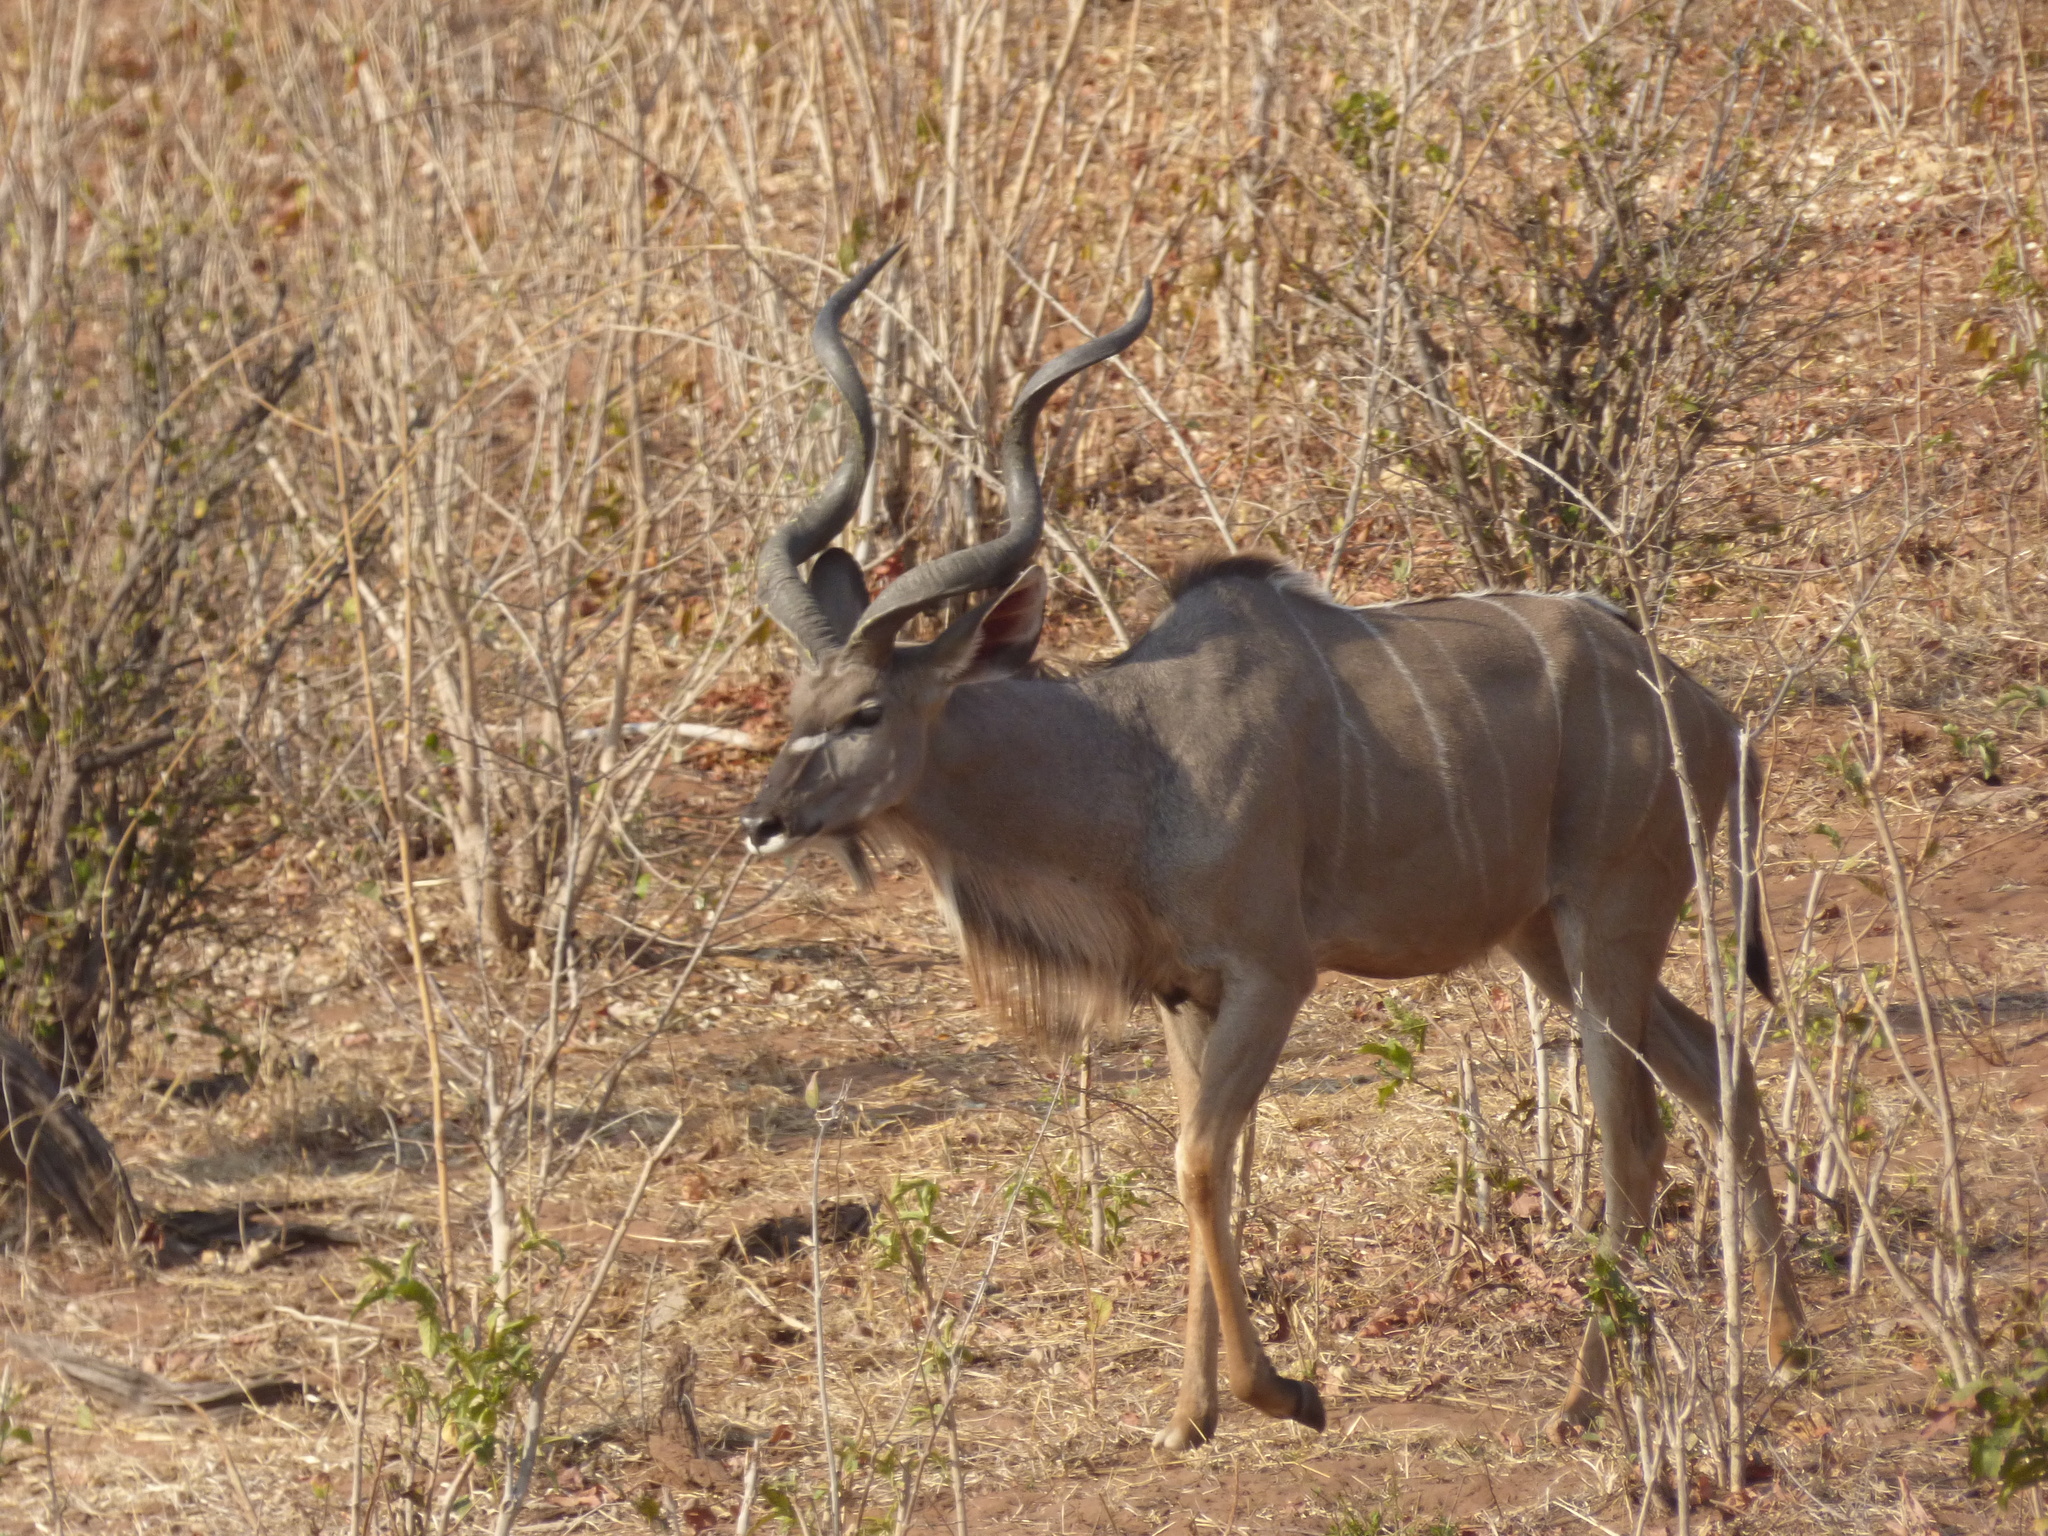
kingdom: Animalia
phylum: Chordata
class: Mammalia
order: Artiodactyla
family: Bovidae
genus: Tragelaphus
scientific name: Tragelaphus strepsiceros
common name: Greater kudu
